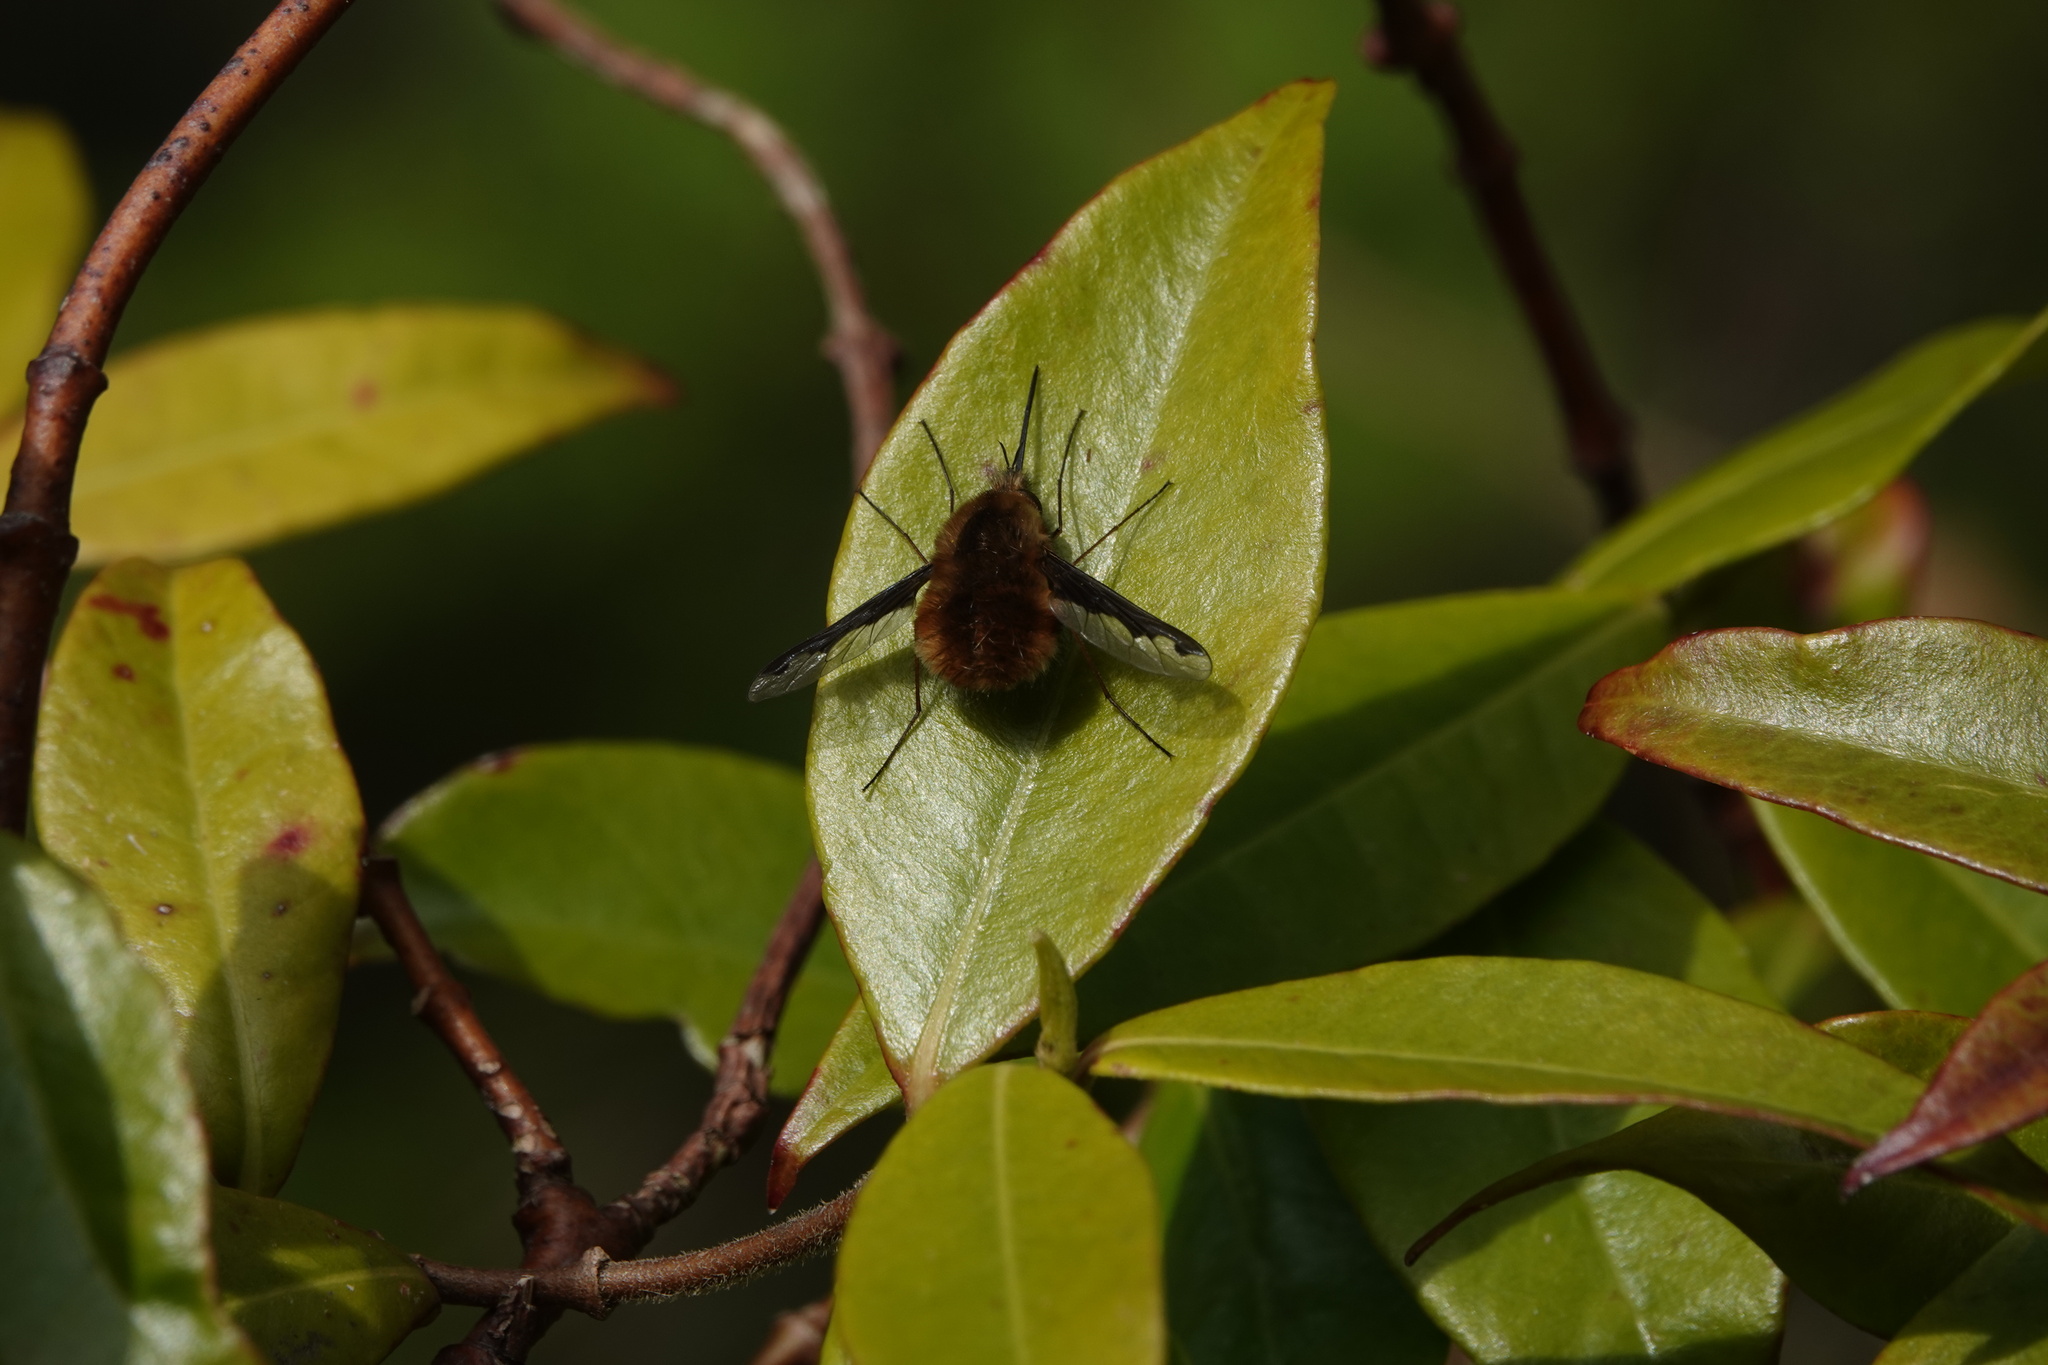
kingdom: Animalia
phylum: Arthropoda
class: Insecta
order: Diptera
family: Bombyliidae
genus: Bombylius
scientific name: Bombylius major
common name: Bee fly
